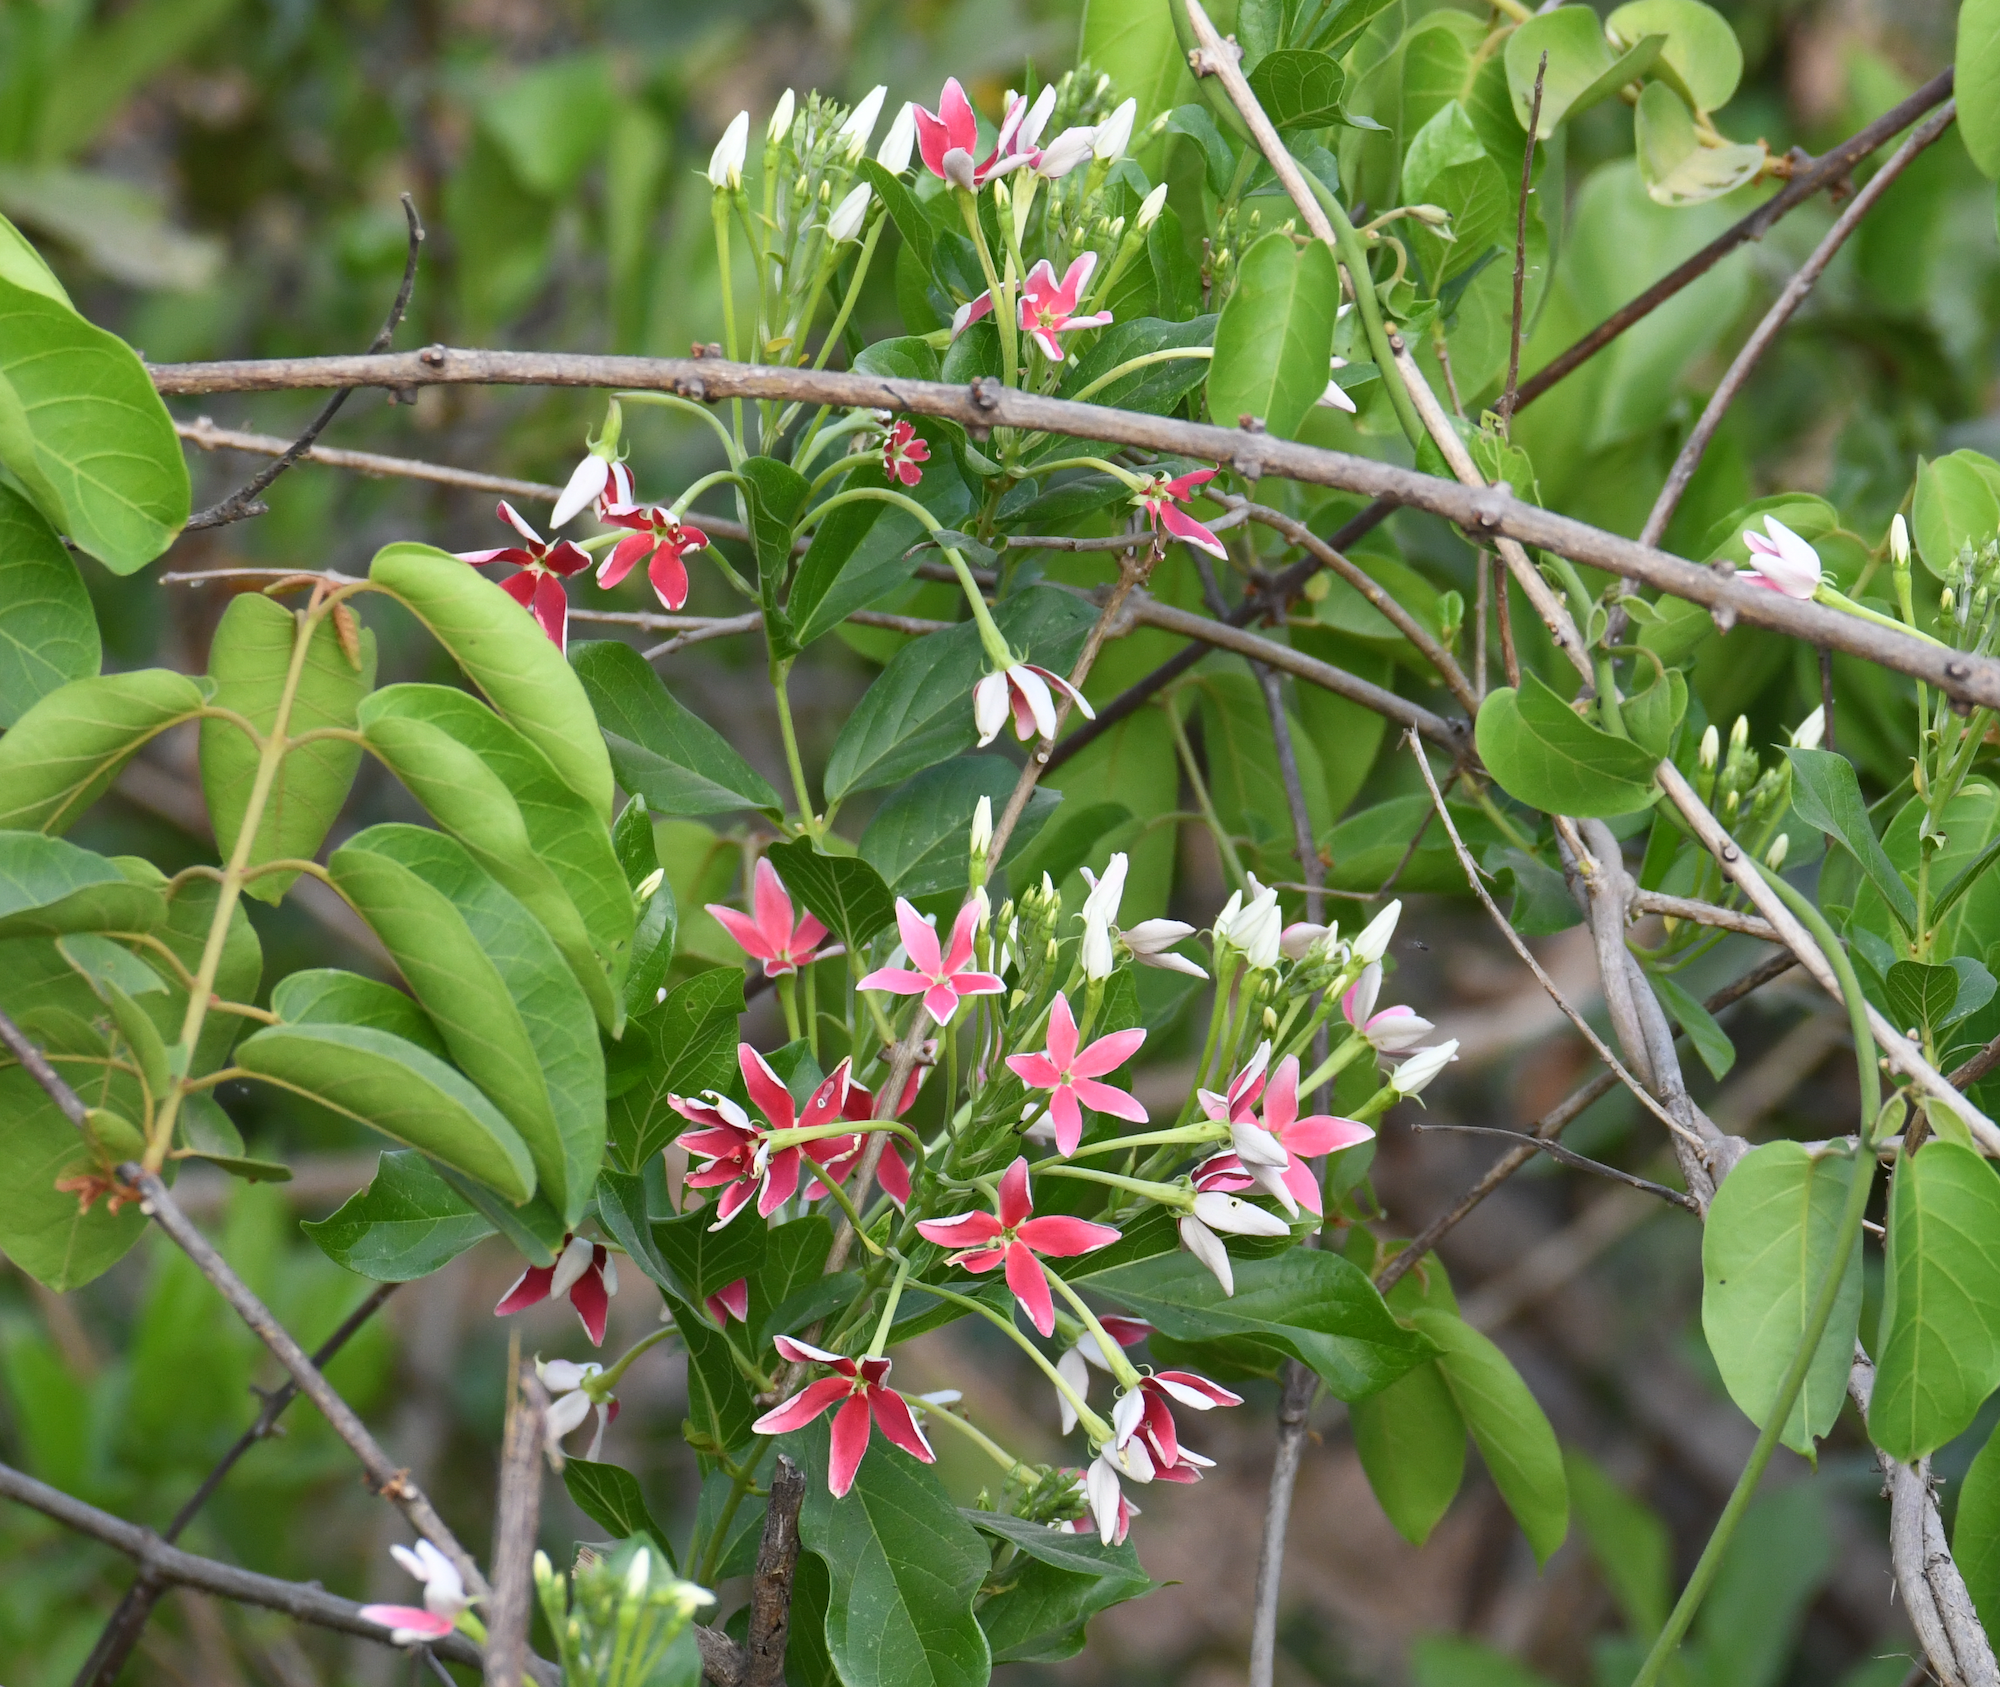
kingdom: Plantae
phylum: Tracheophyta
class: Magnoliopsida
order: Myrtales
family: Combretaceae
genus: Combretum
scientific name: Combretum indicum
